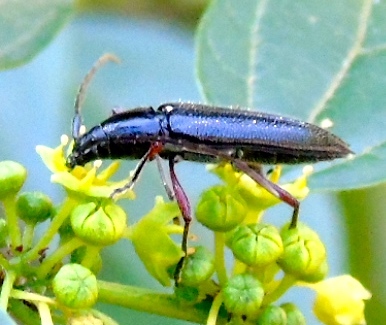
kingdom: Animalia
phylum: Arthropoda
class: Insecta
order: Coleoptera
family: Cerambycidae
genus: Stenosphenus
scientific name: Stenosphenus
